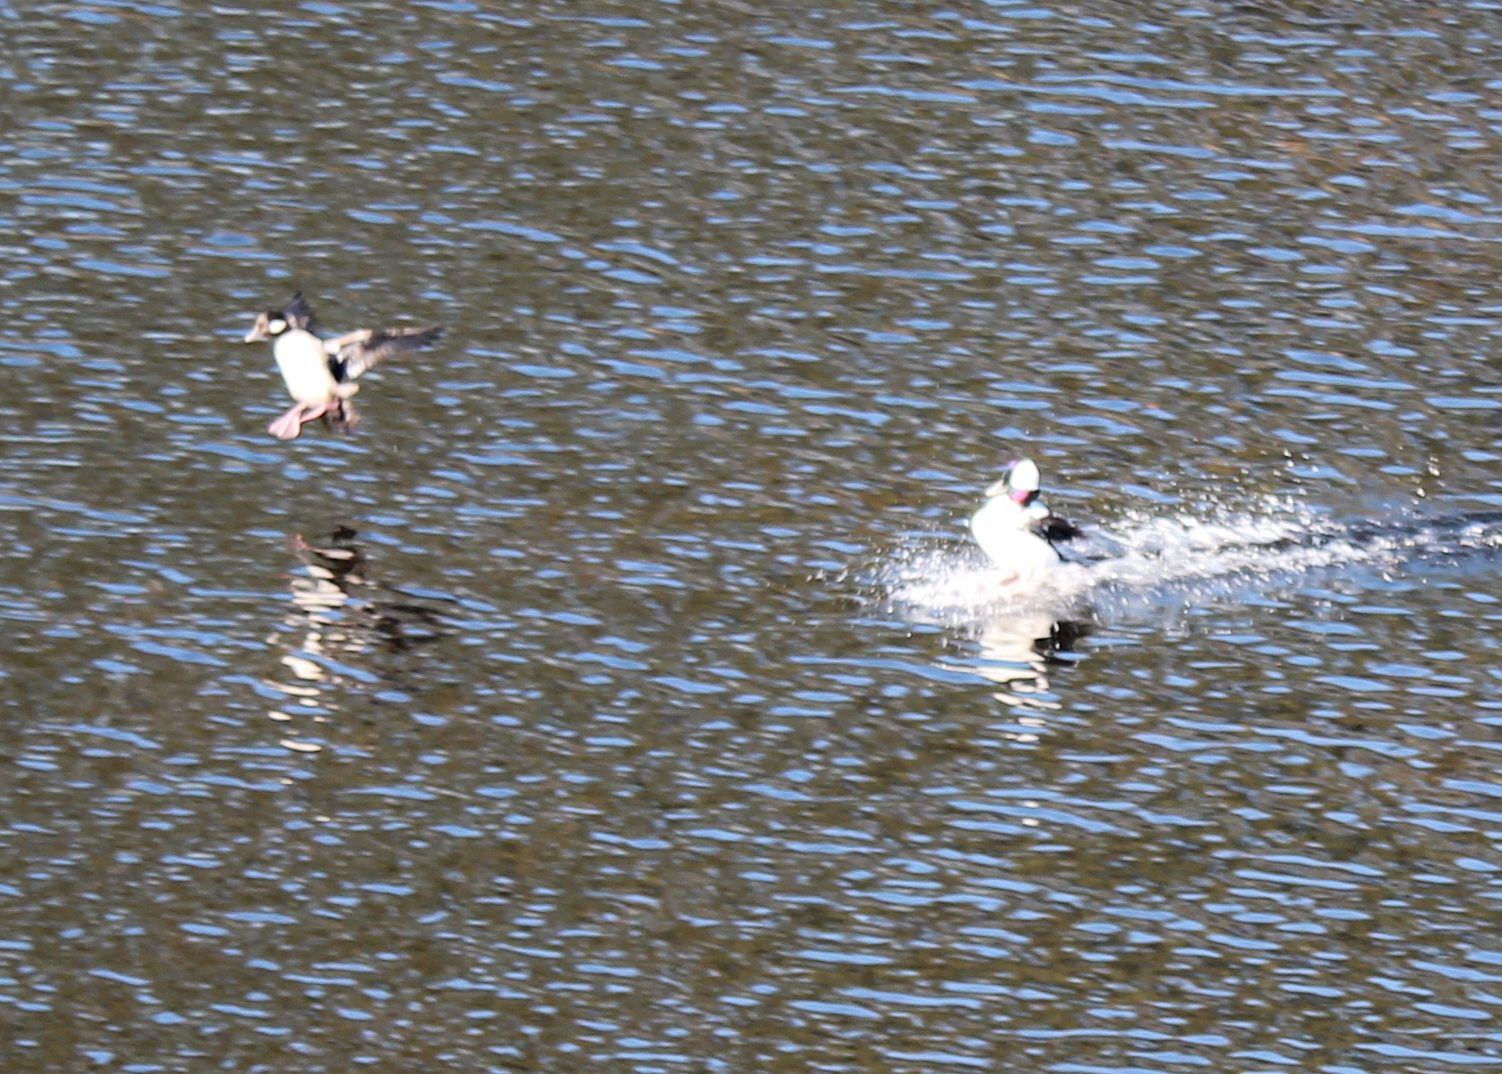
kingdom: Animalia
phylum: Chordata
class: Aves
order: Anseriformes
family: Anatidae
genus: Bucephala
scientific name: Bucephala albeola
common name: Bufflehead
